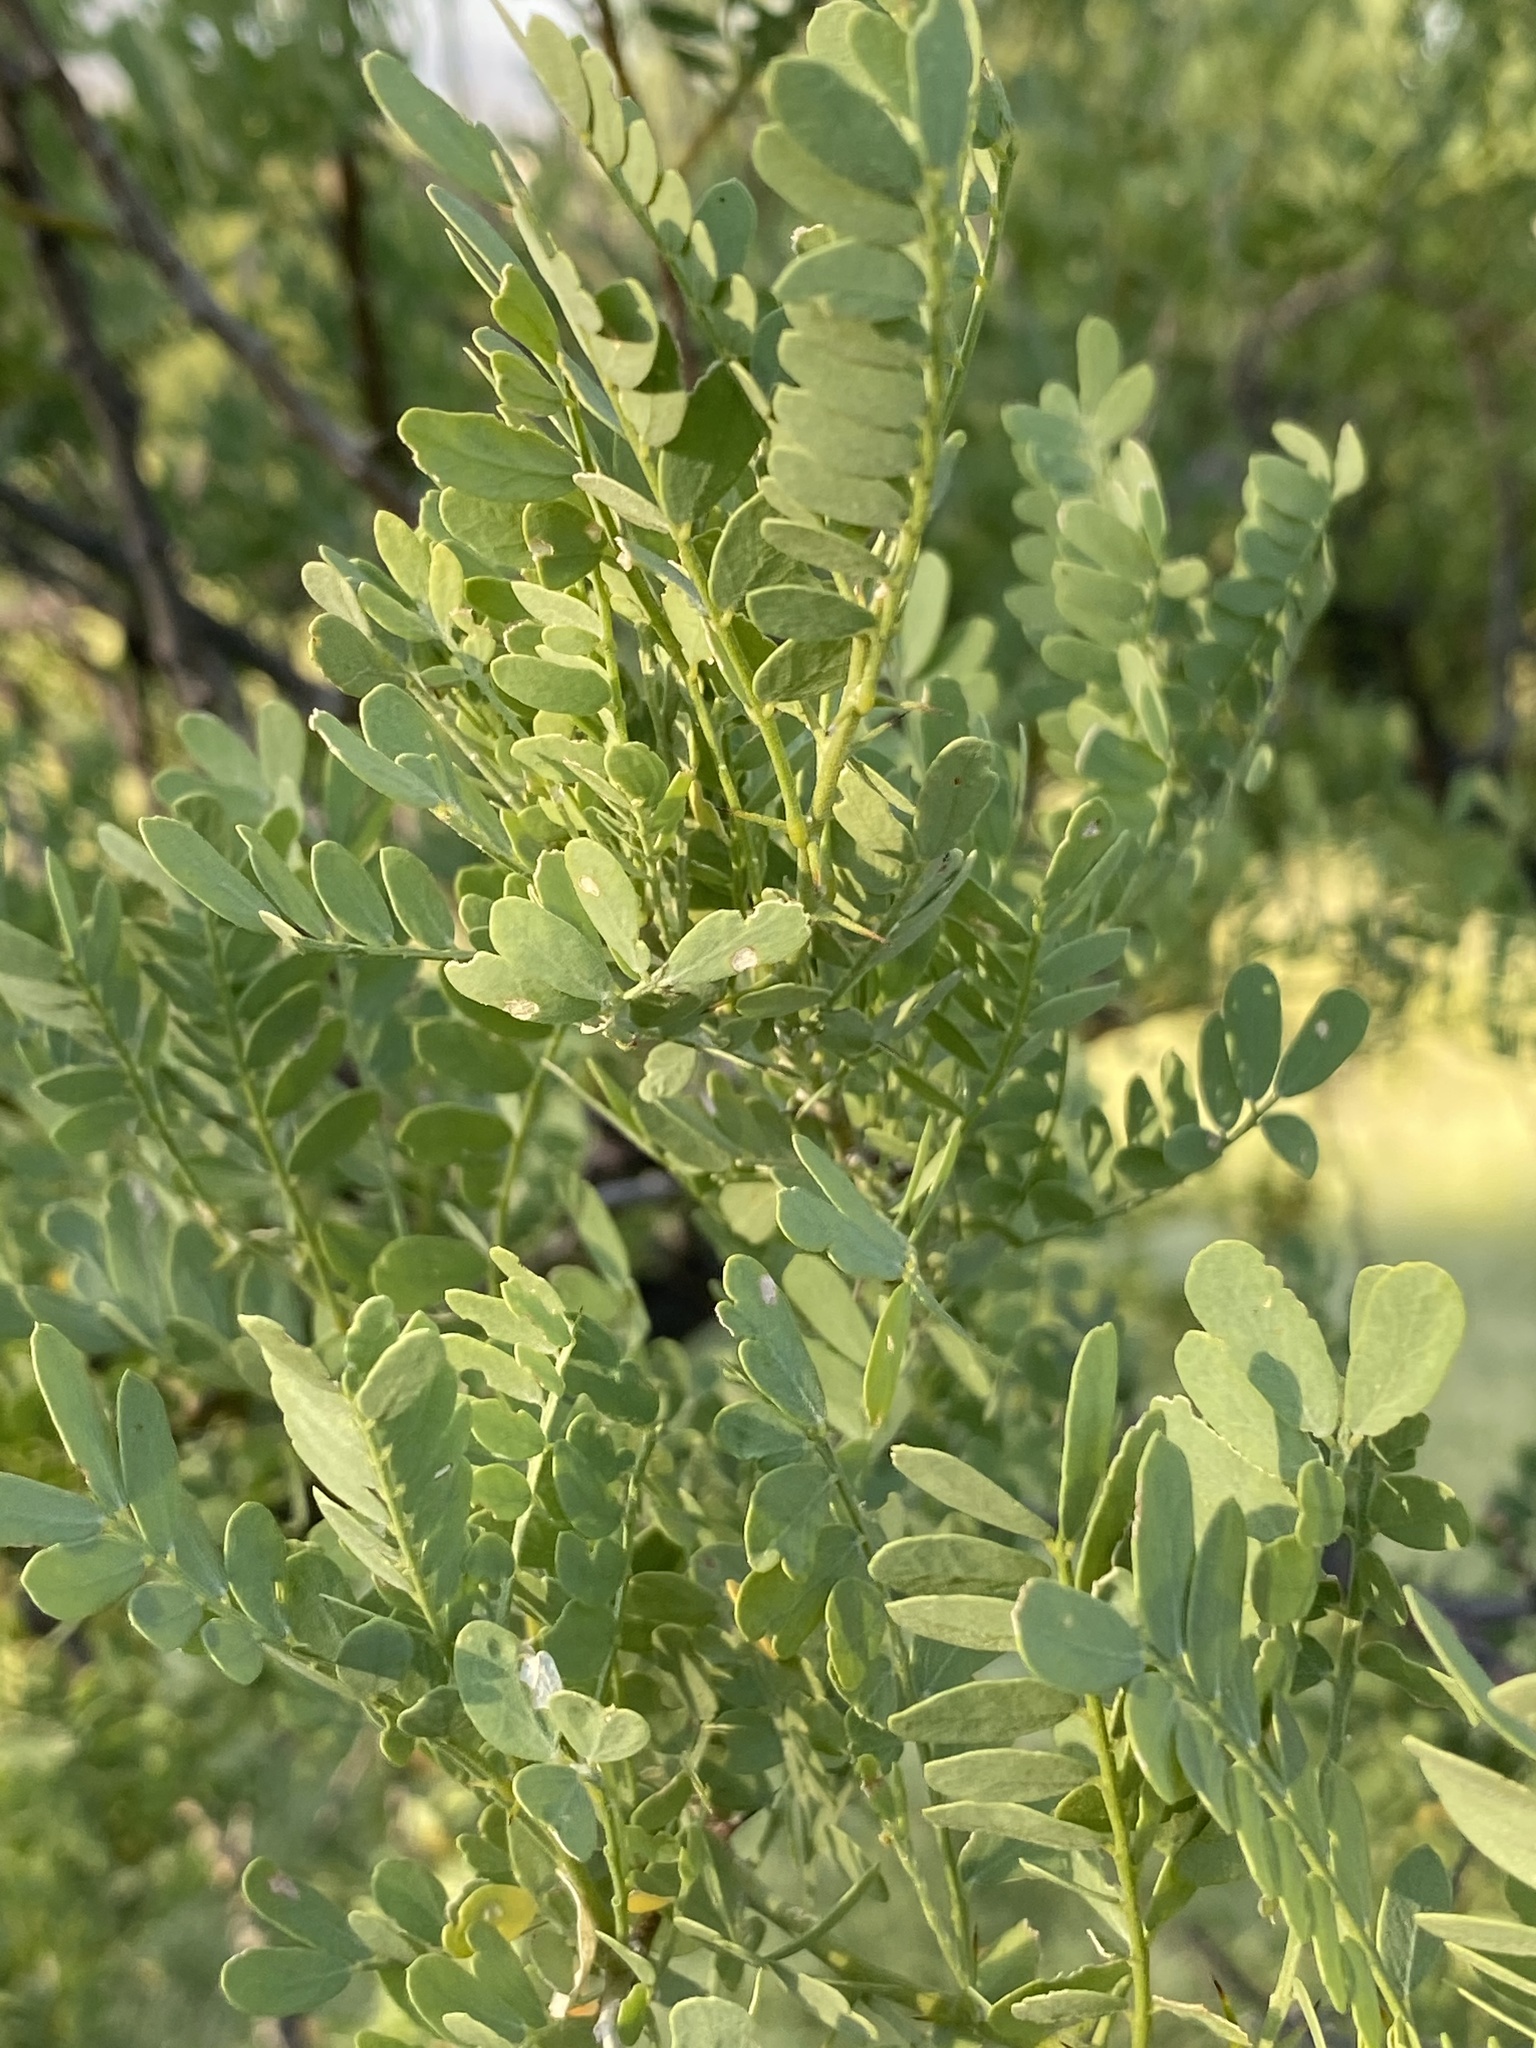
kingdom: Plantae
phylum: Tracheophyta
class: Magnoliopsida
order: Fabales
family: Fabaceae
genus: Olneya
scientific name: Olneya tesota
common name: Desert ironwood
